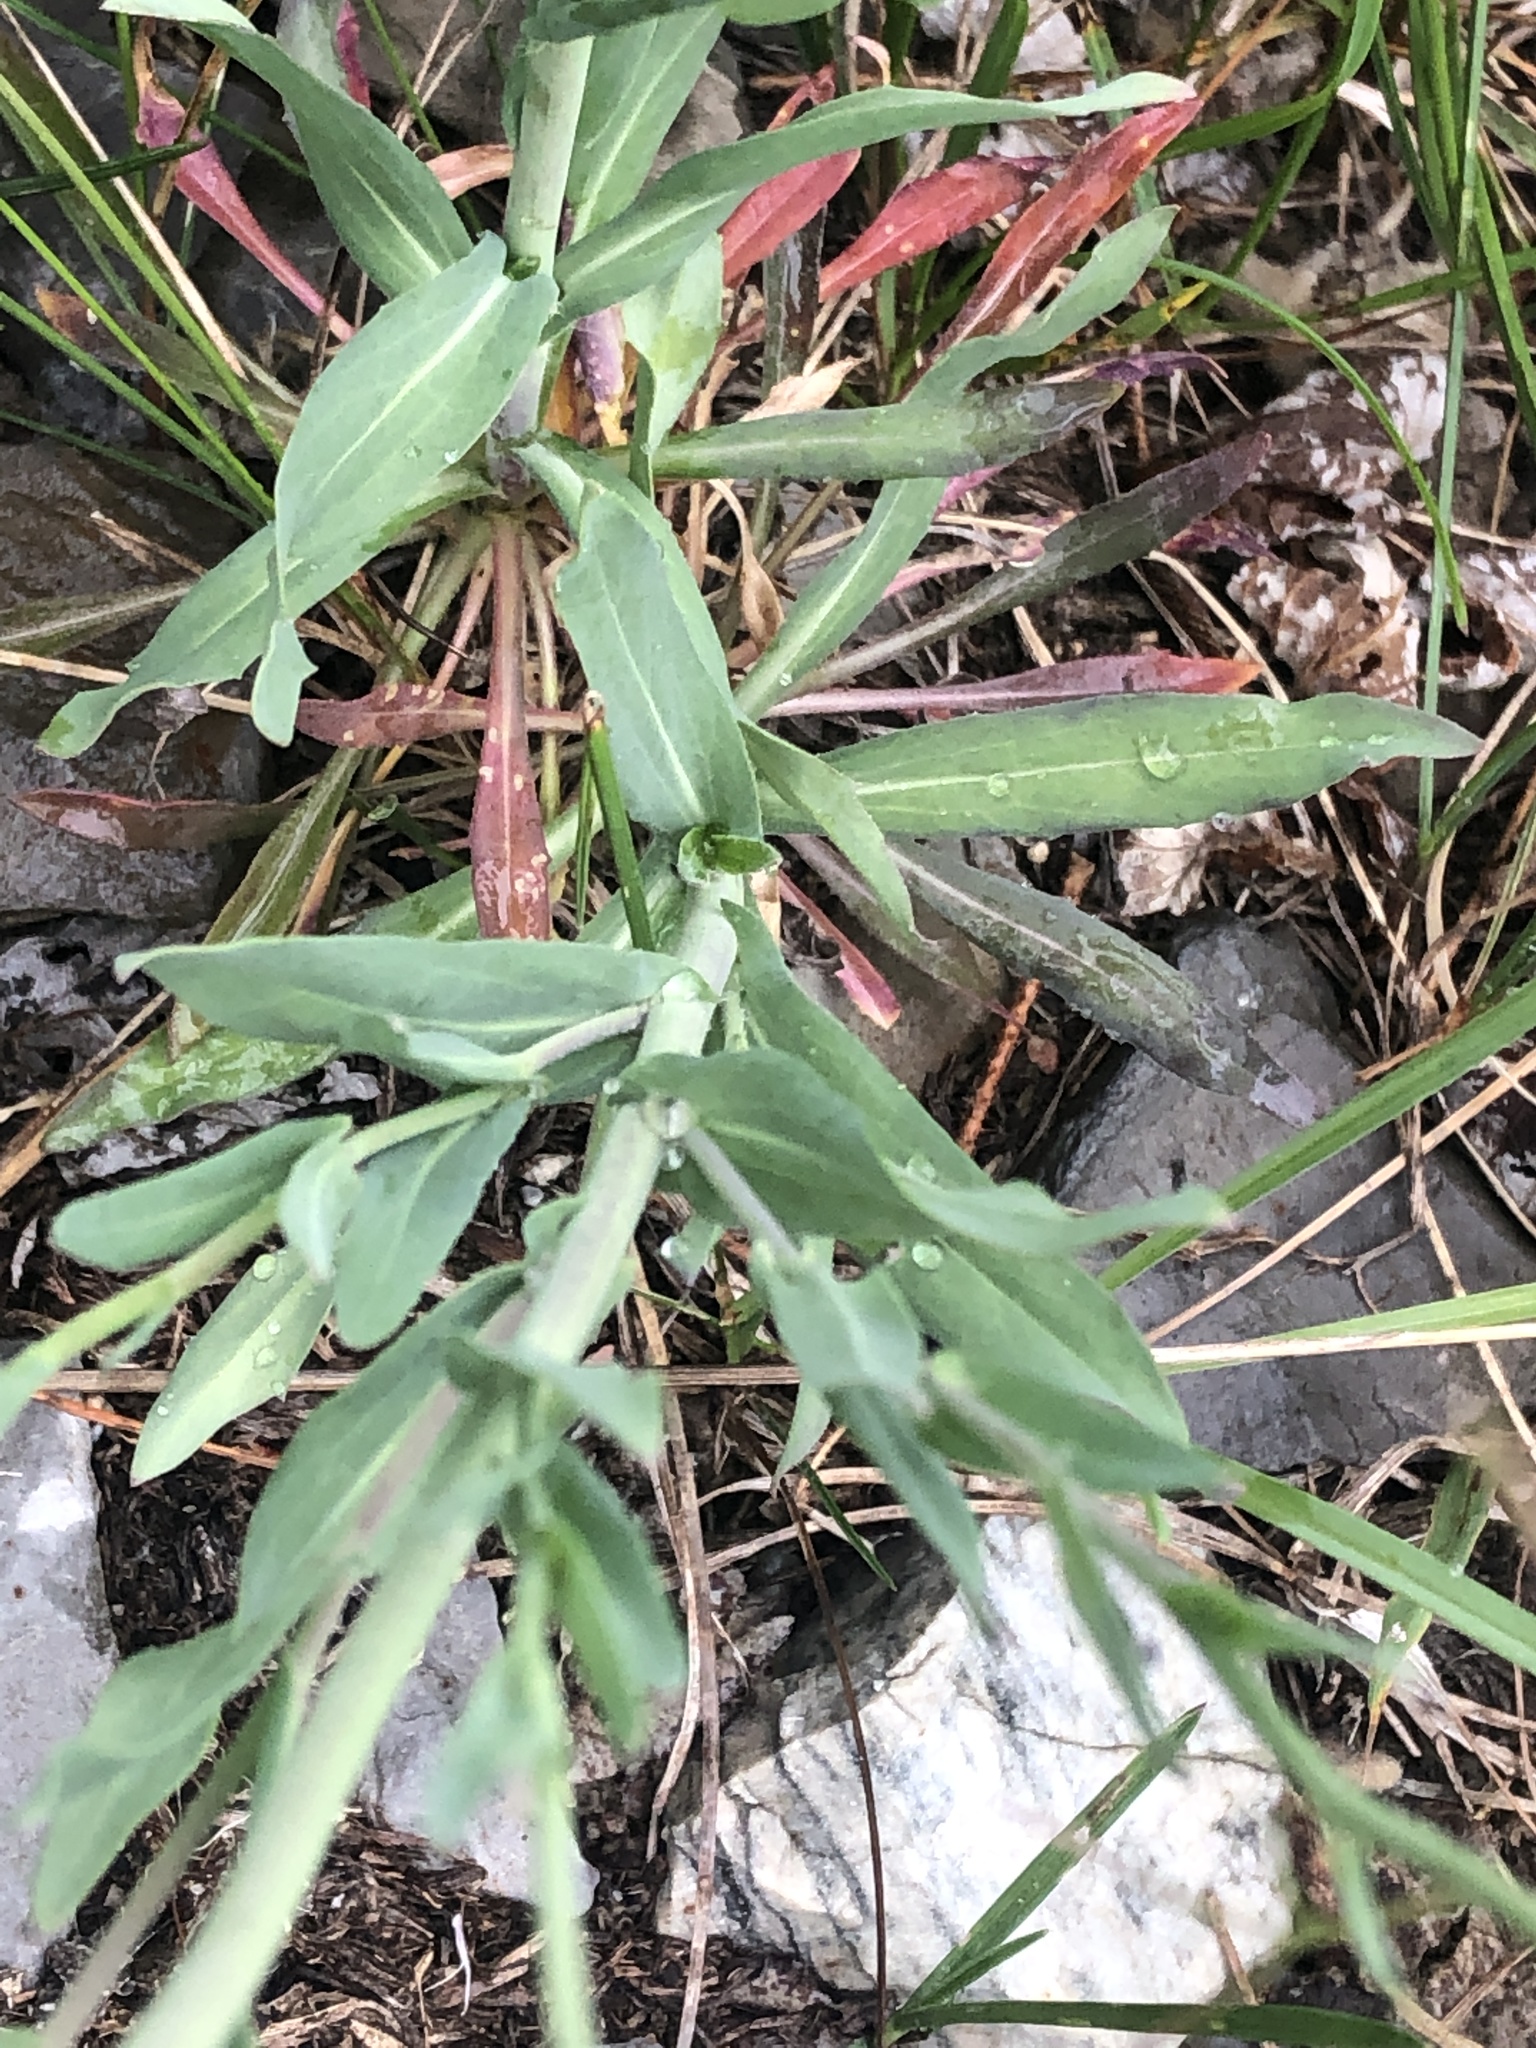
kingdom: Plantae
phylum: Tracheophyta
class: Magnoliopsida
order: Brassicales
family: Brassicaceae
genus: Boechera
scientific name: Boechera grahamii
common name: Graham's rockcress
